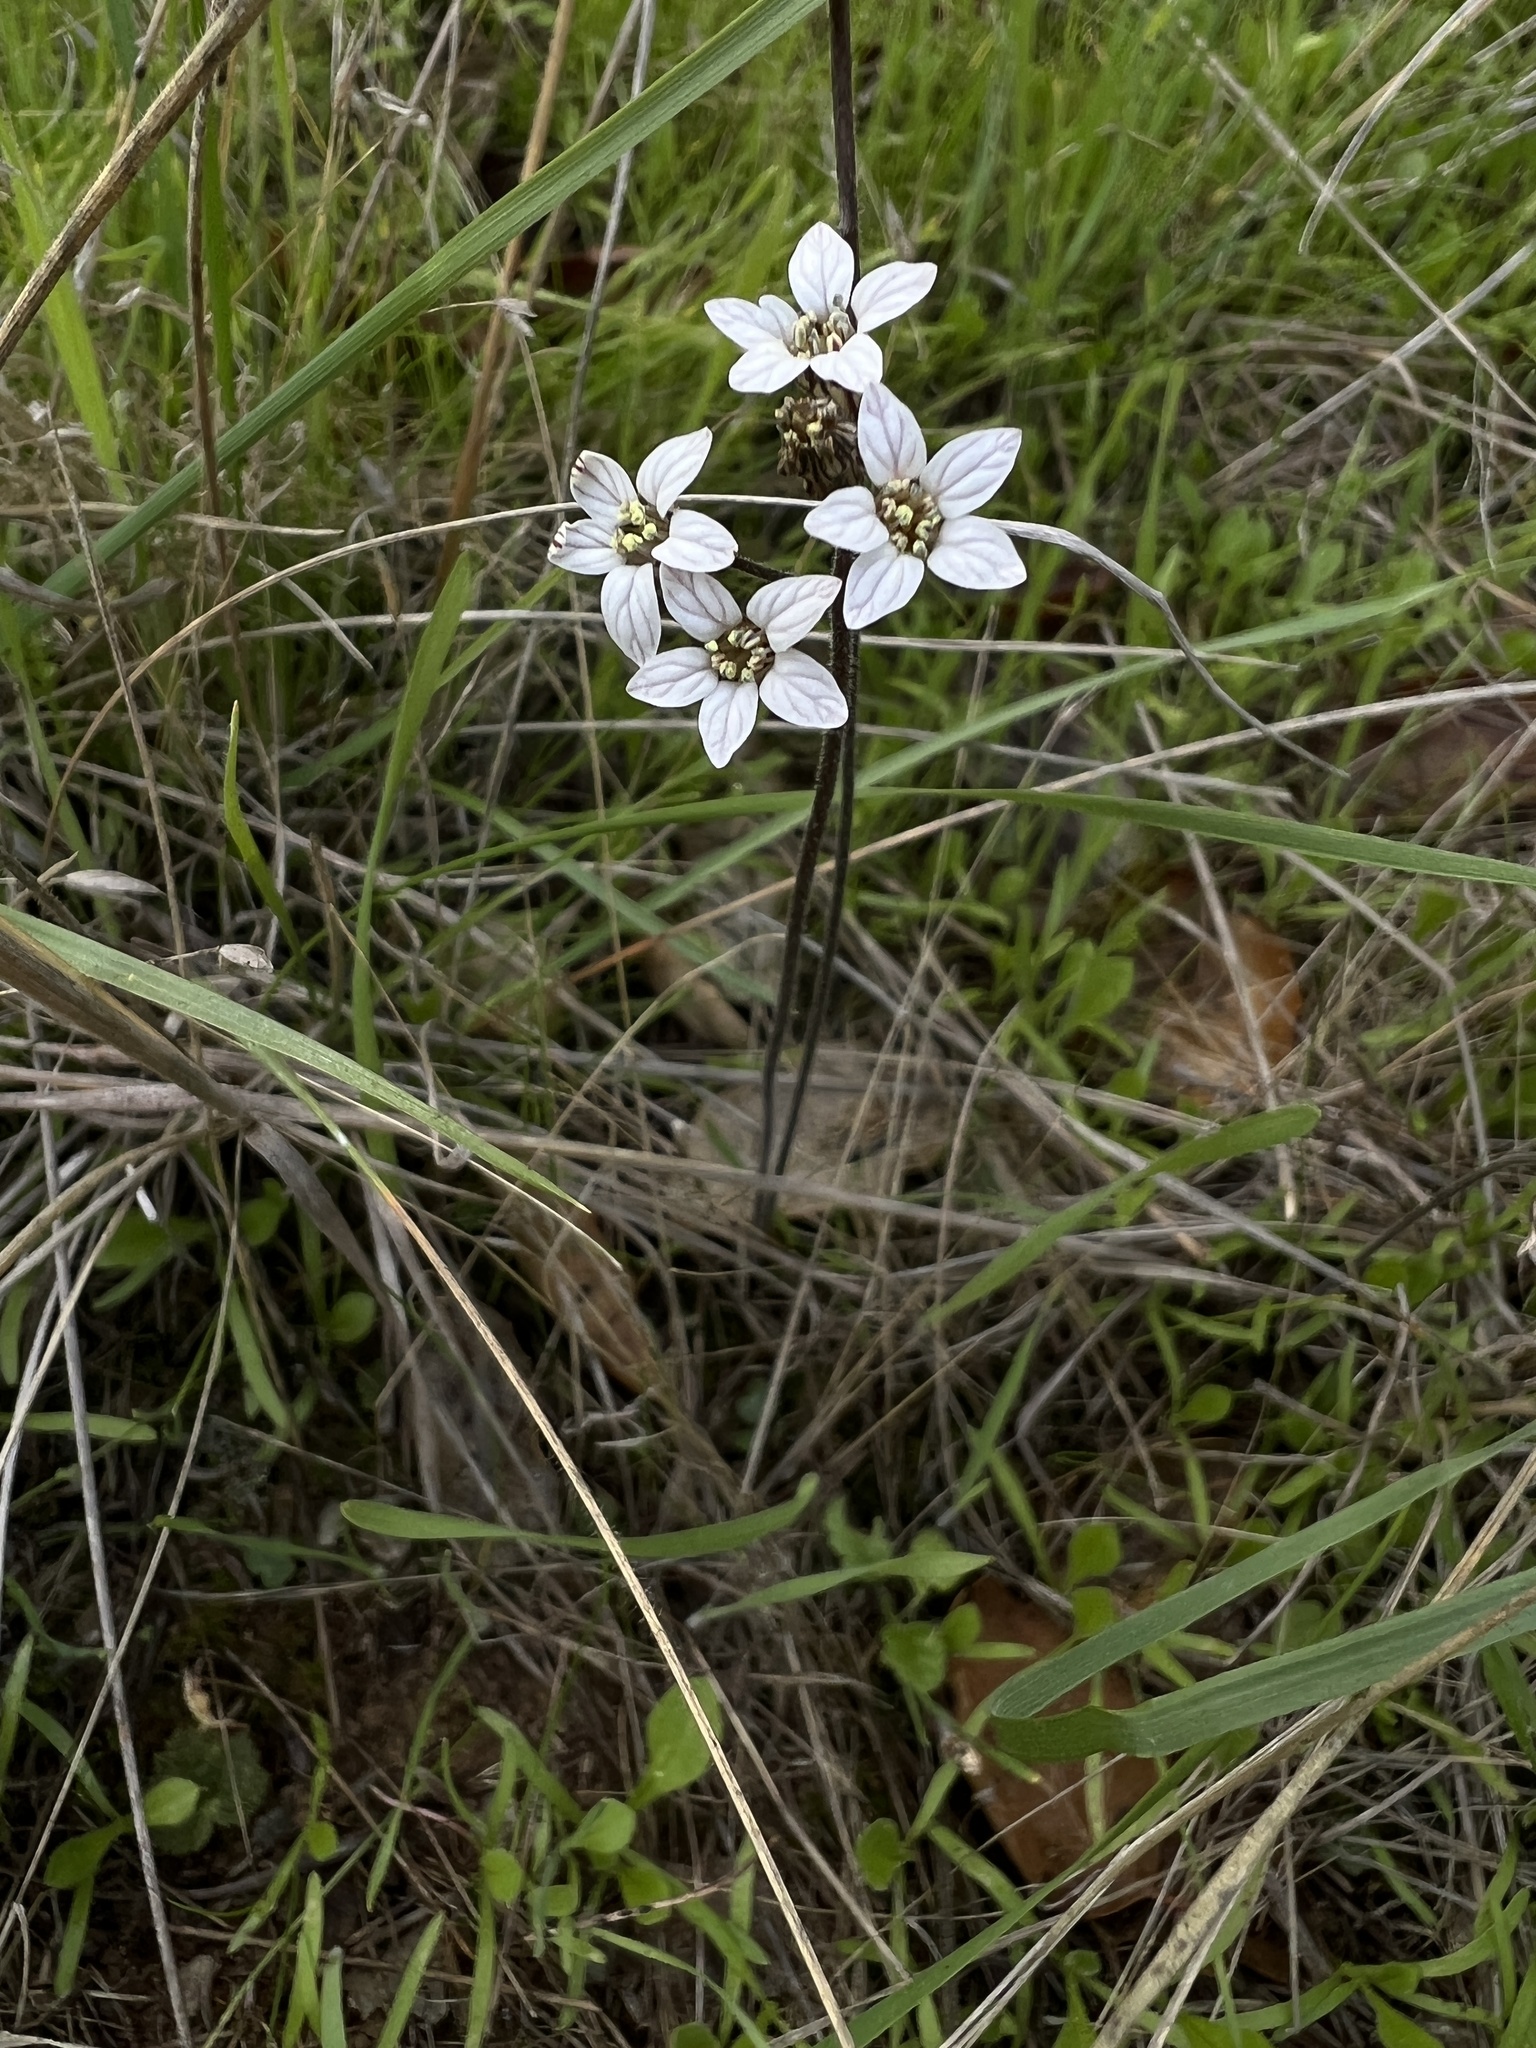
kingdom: Plantae
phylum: Tracheophyta
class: Magnoliopsida
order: Saxifragales
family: Saxifragaceae
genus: Jepsonia
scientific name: Jepsonia parryi
